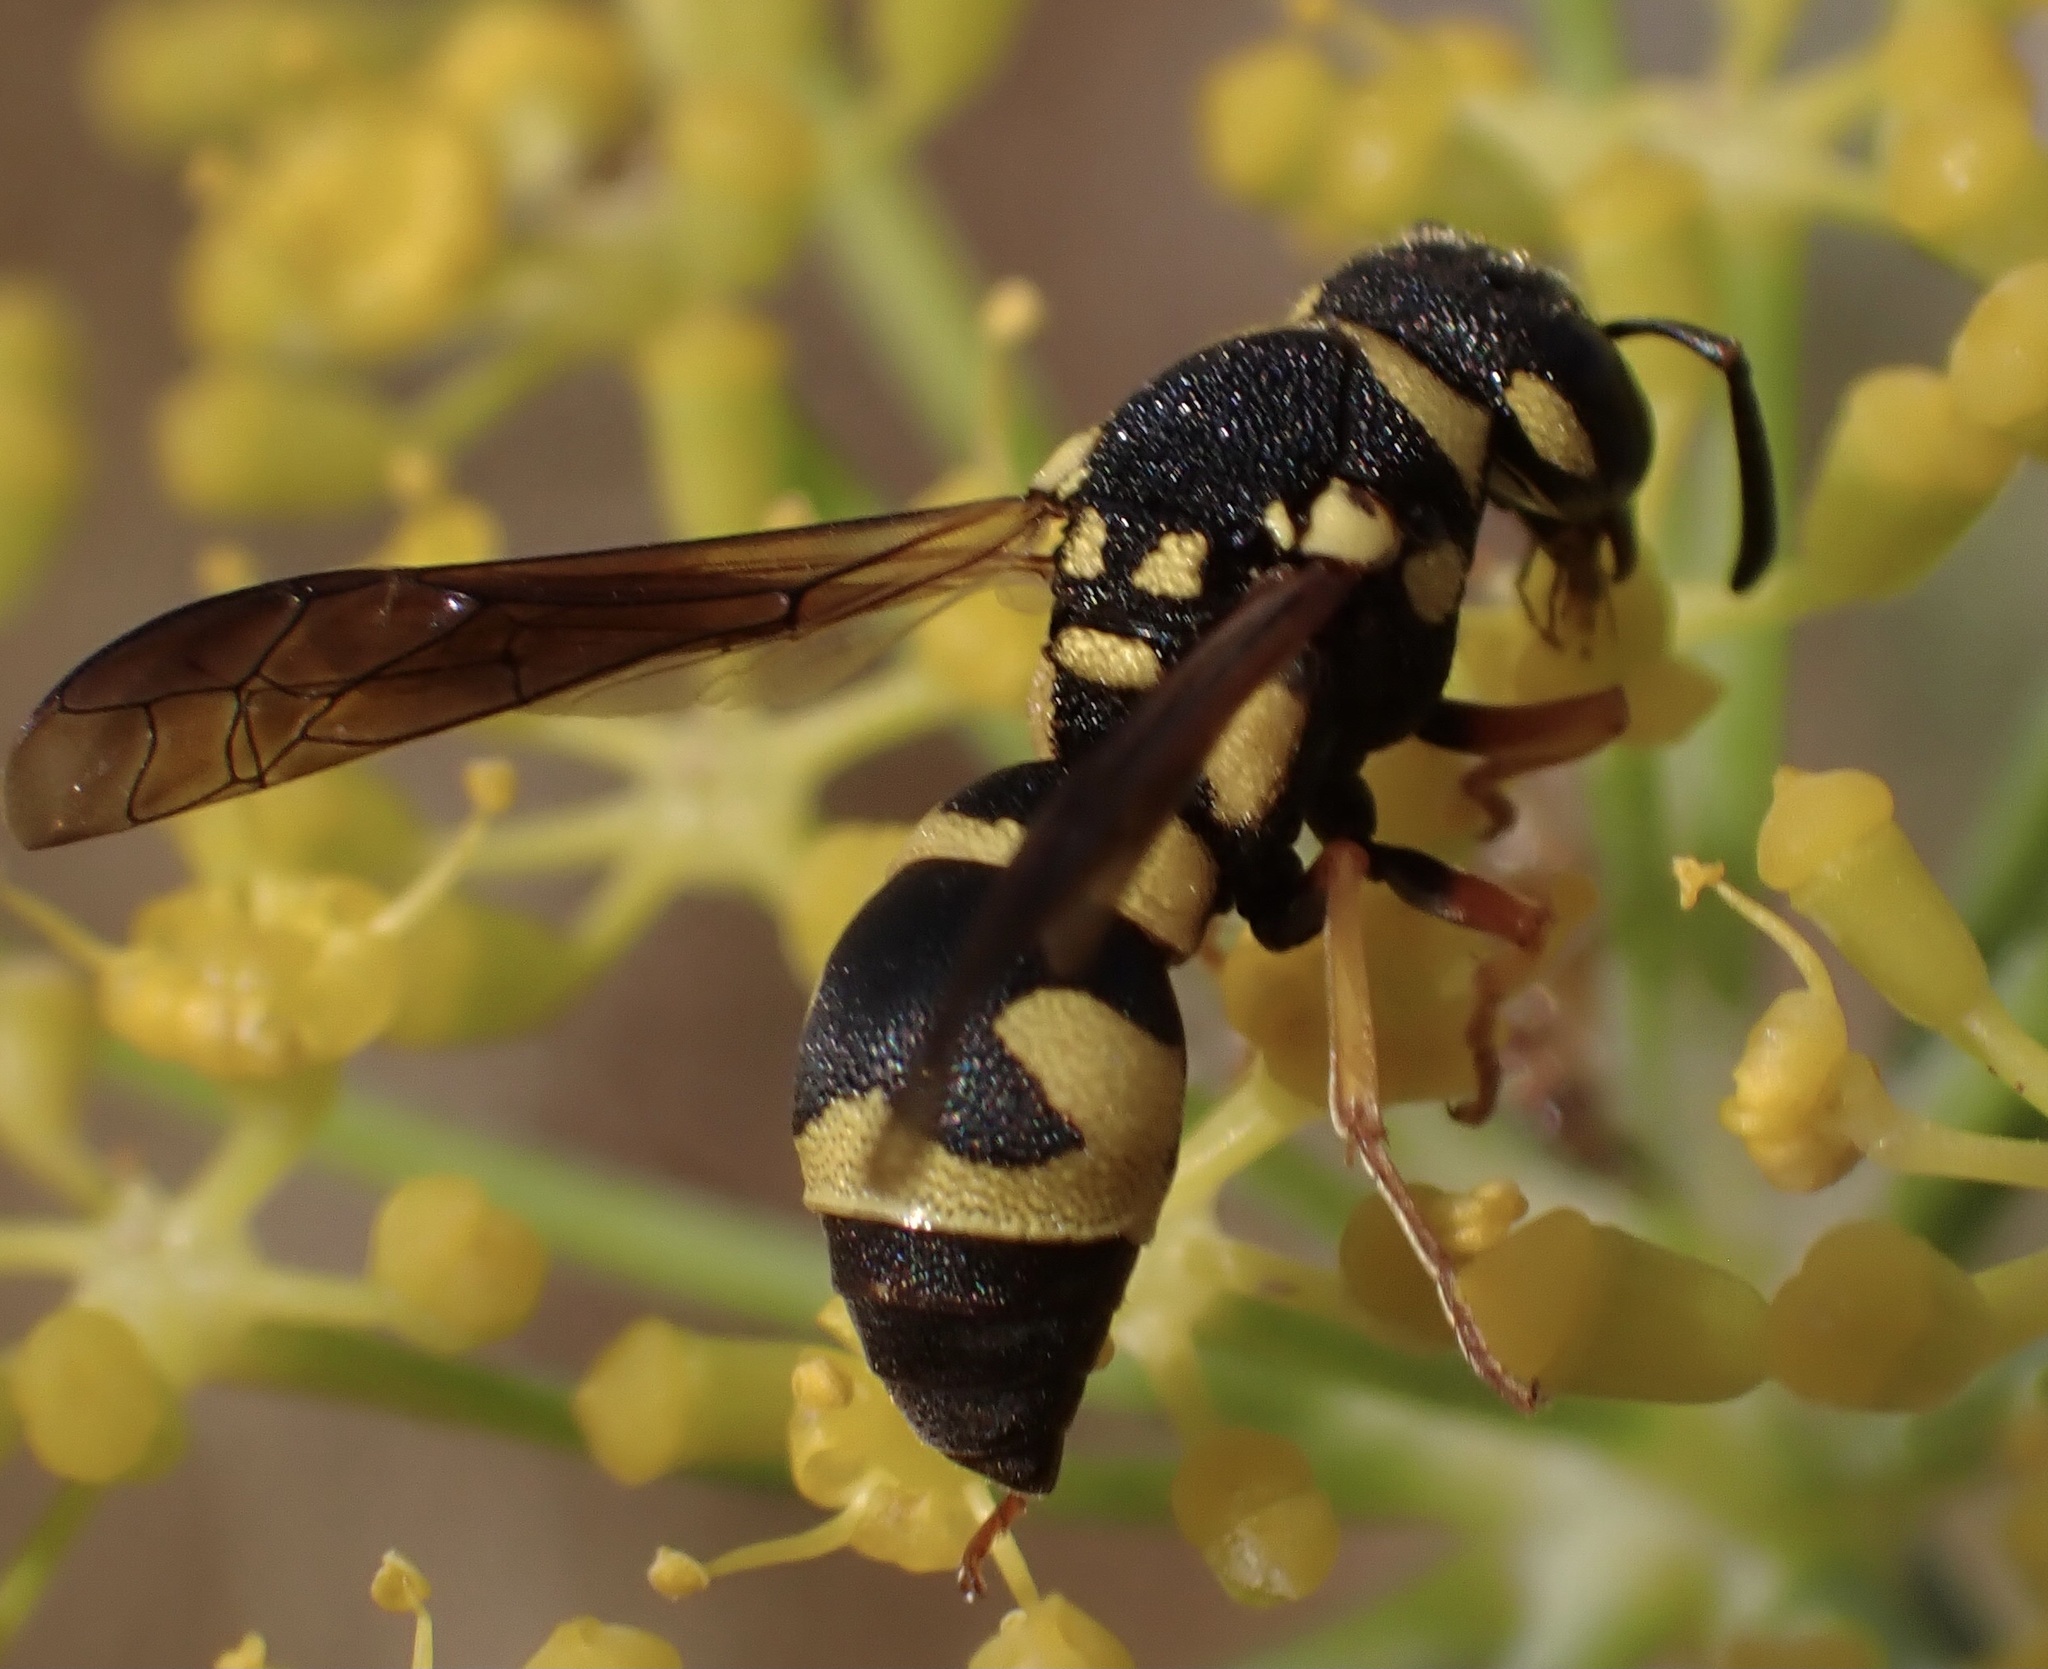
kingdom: Animalia
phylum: Arthropoda
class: Insecta
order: Hymenoptera
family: Eumenidae
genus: Parodontodynerus
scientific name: Parodontodynerus ephippium
